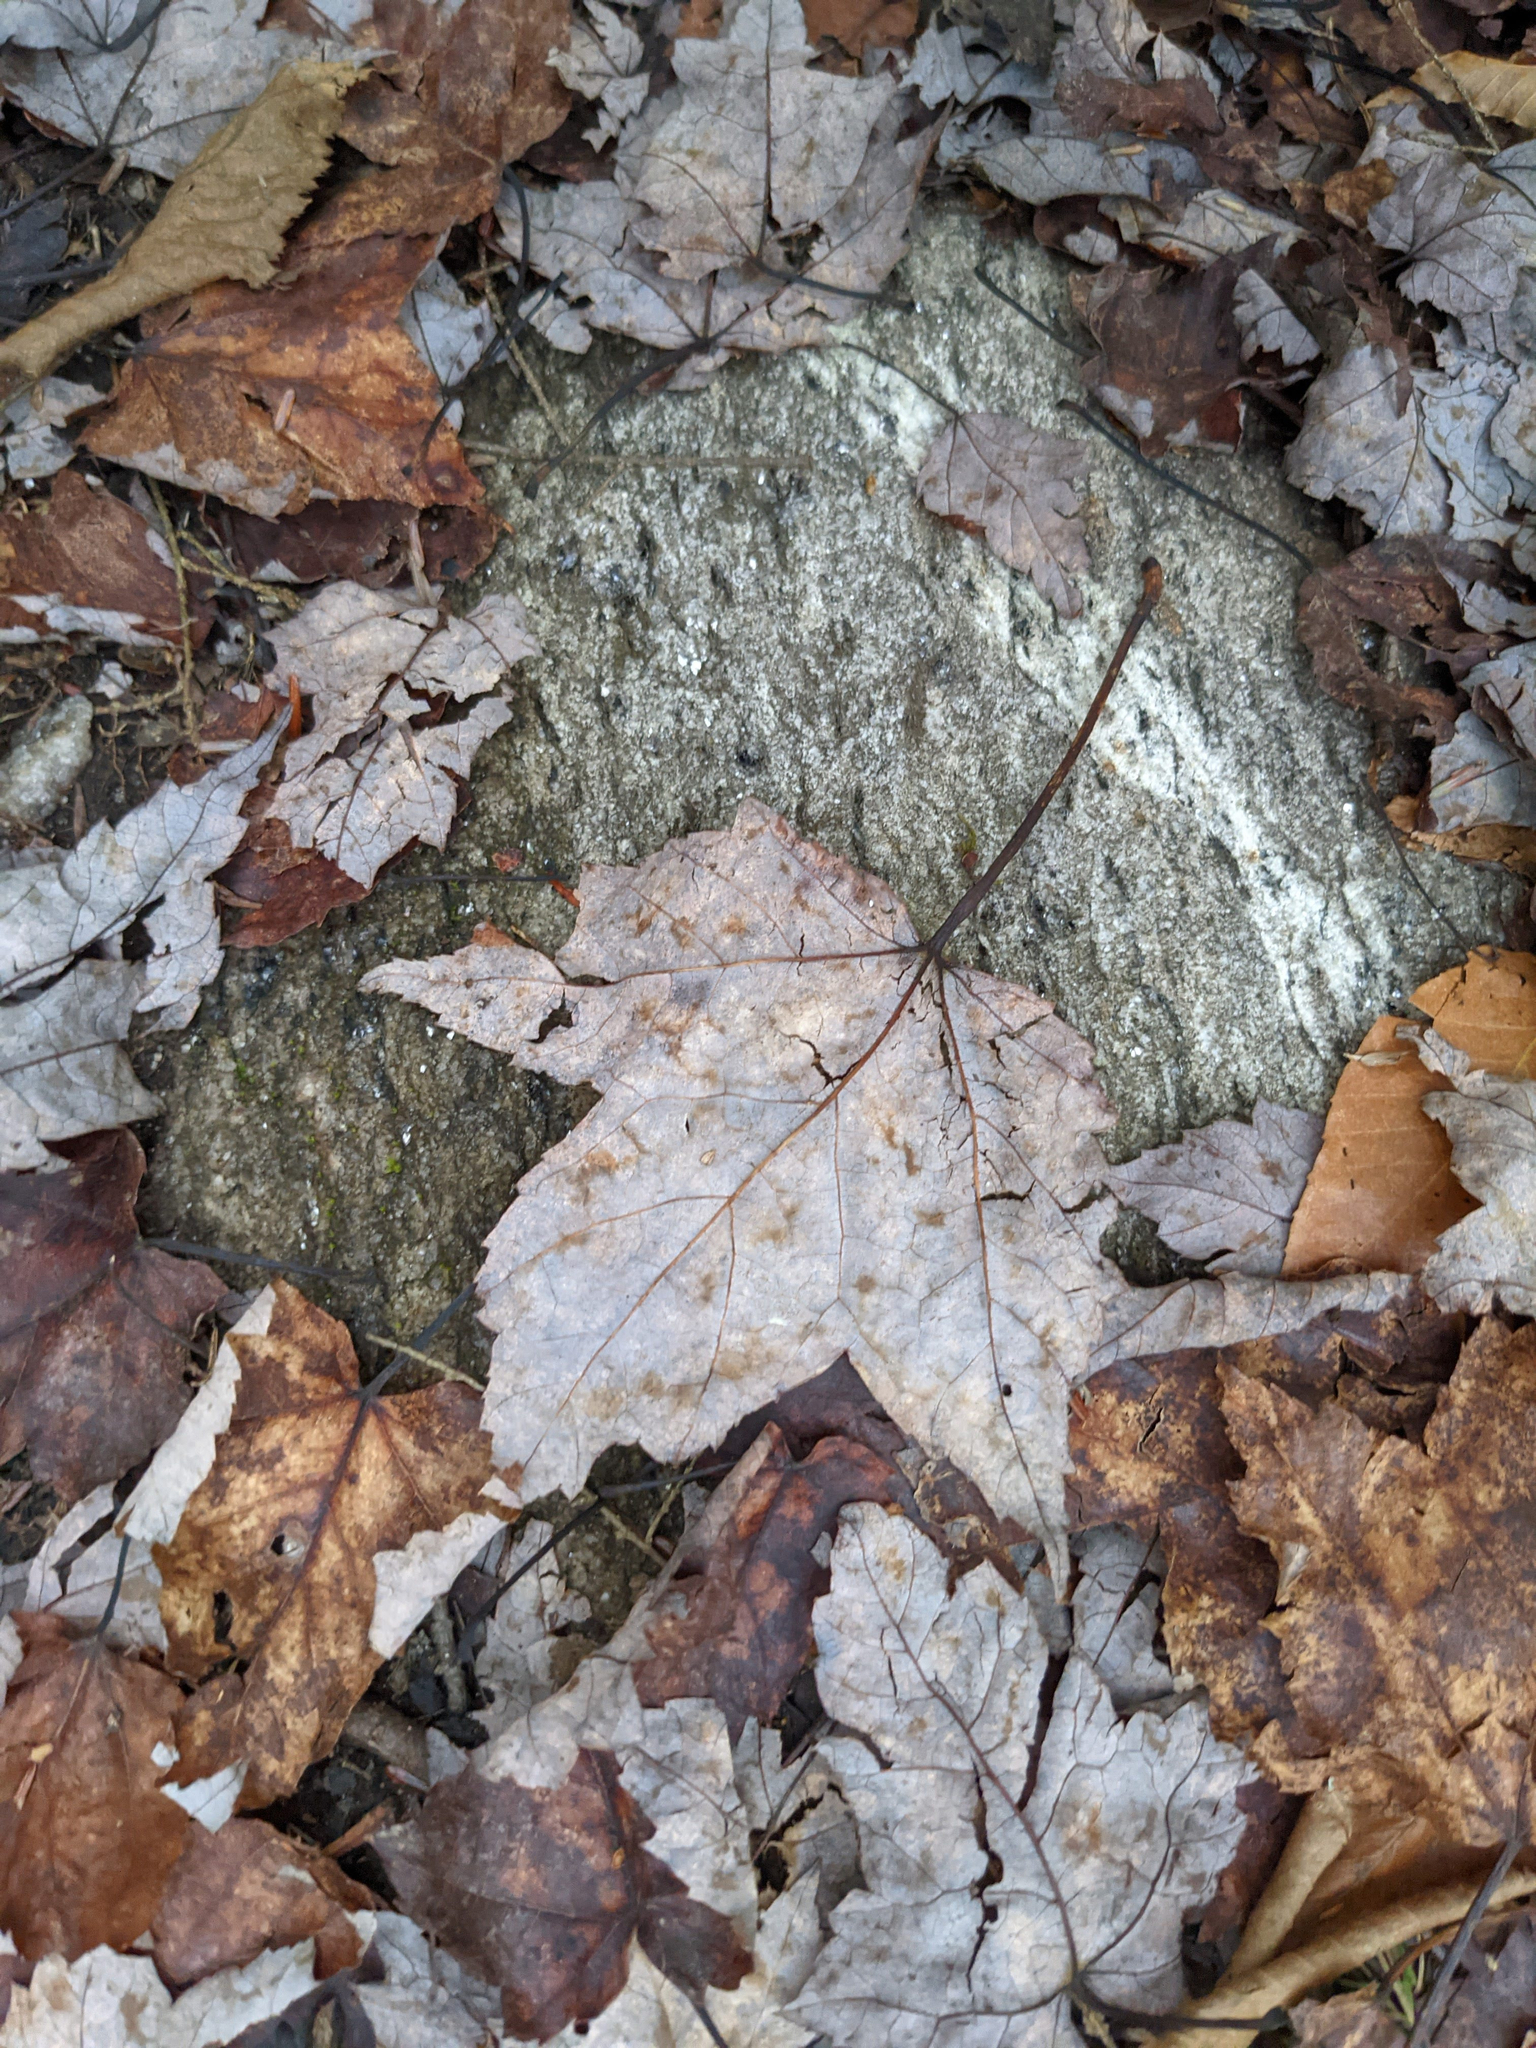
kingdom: Plantae
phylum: Tracheophyta
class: Magnoliopsida
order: Sapindales
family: Sapindaceae
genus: Acer
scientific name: Acer rubrum
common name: Red maple
